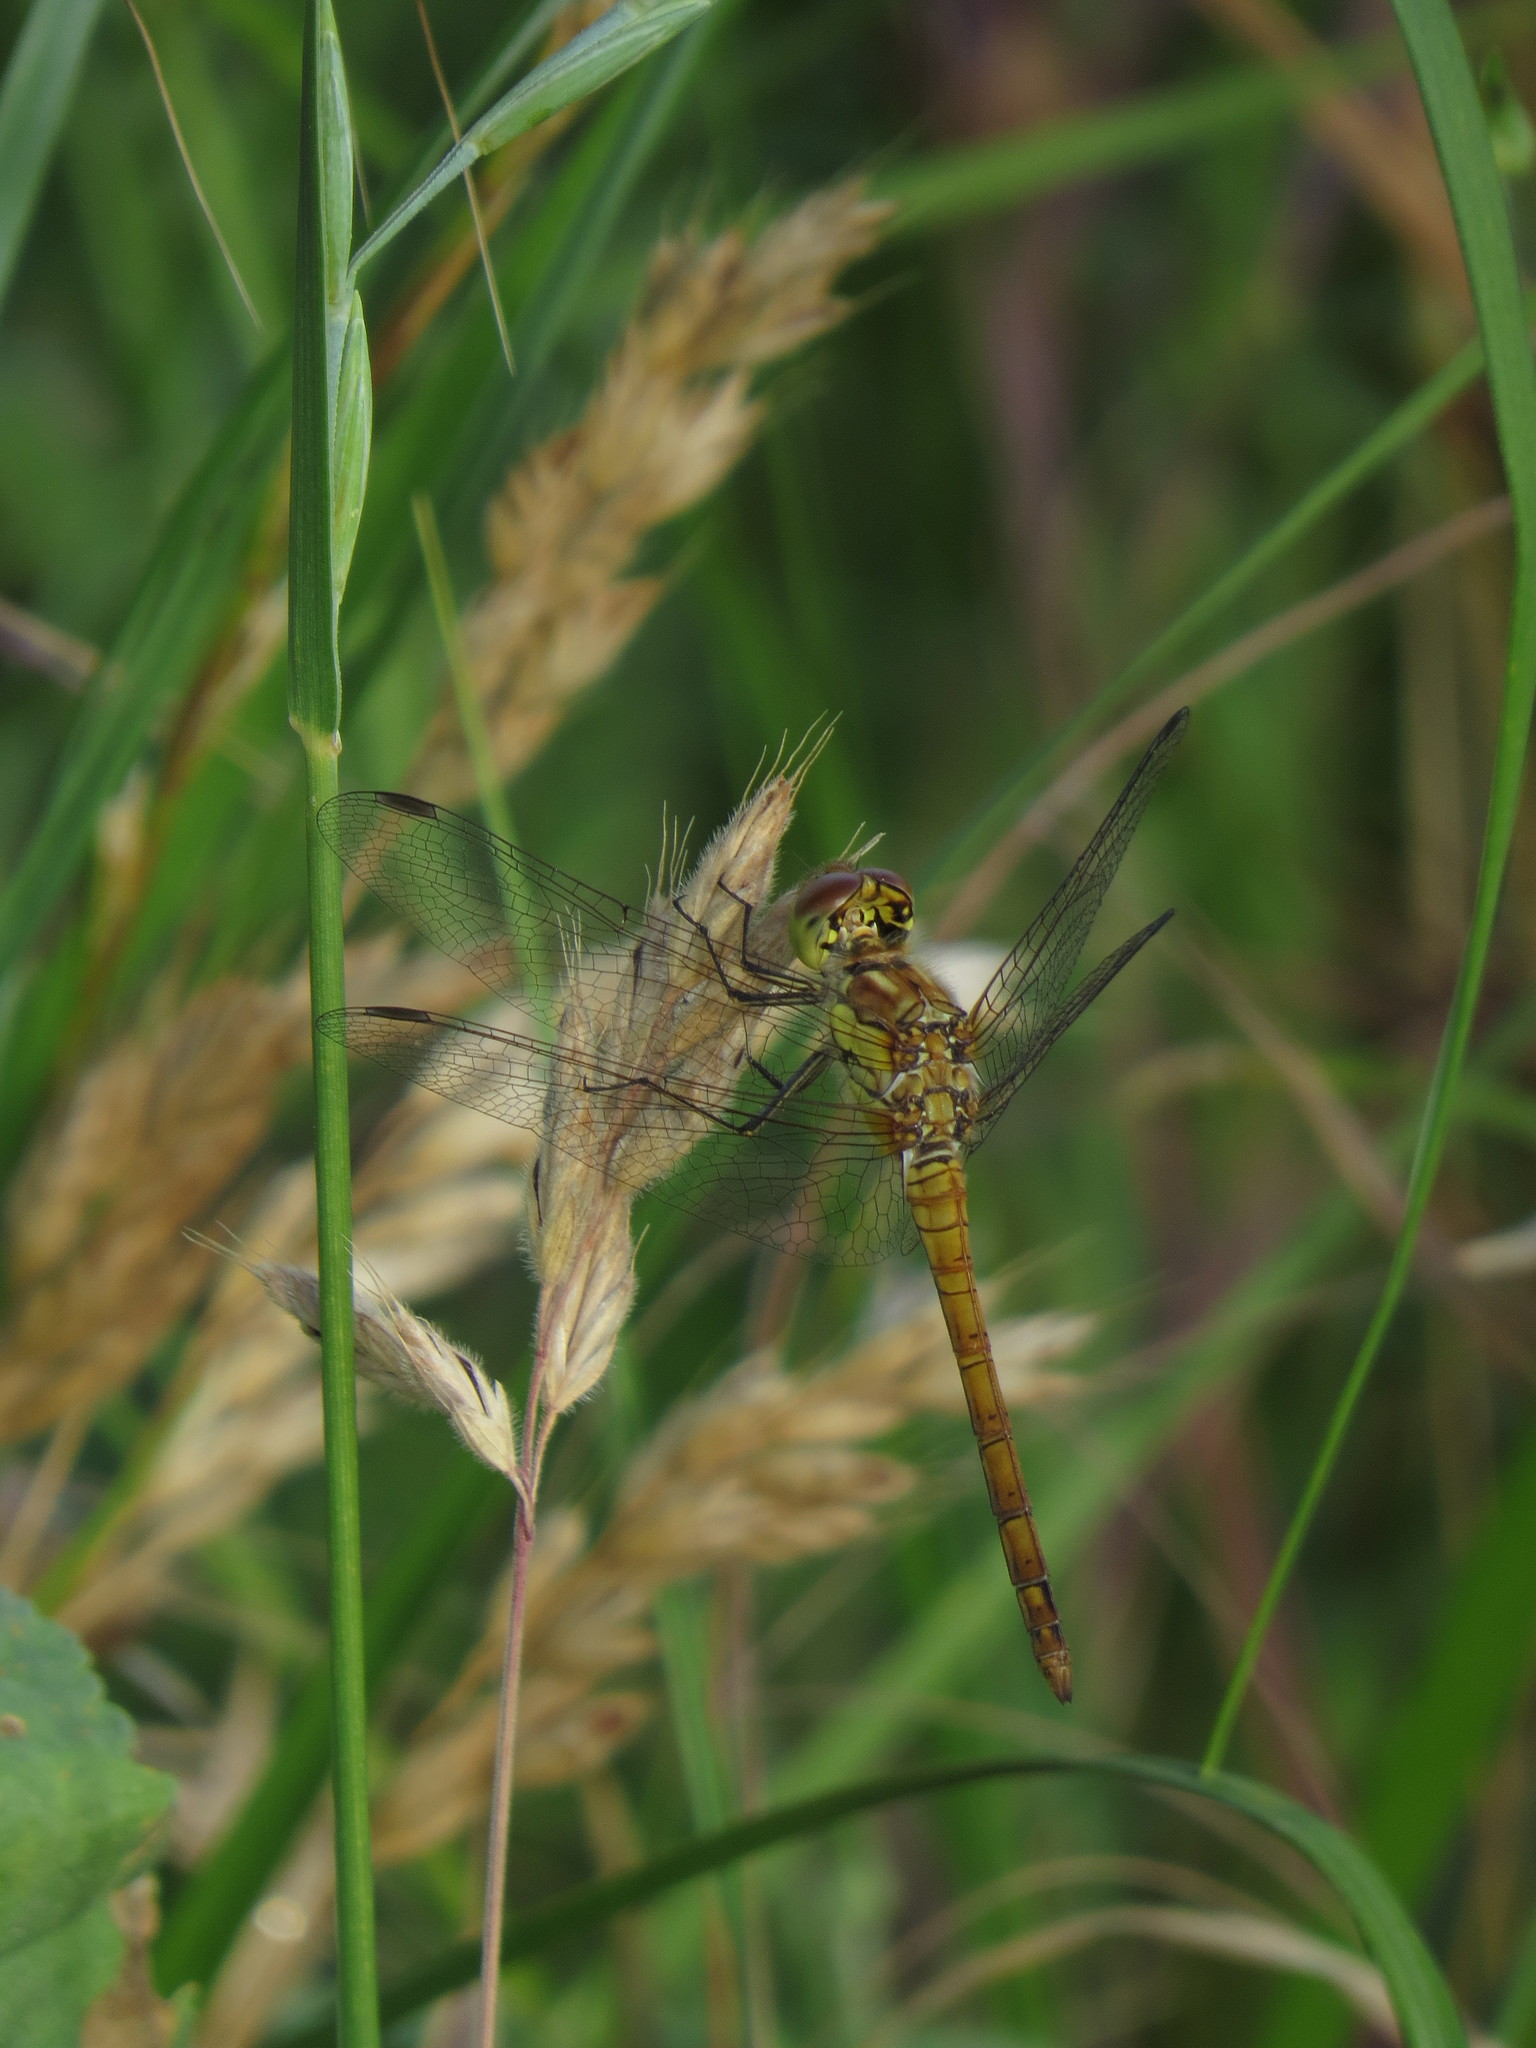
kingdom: Animalia
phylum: Arthropoda
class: Insecta
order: Odonata
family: Libellulidae
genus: Sympetrum
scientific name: Sympetrum striolatum
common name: Common darter
